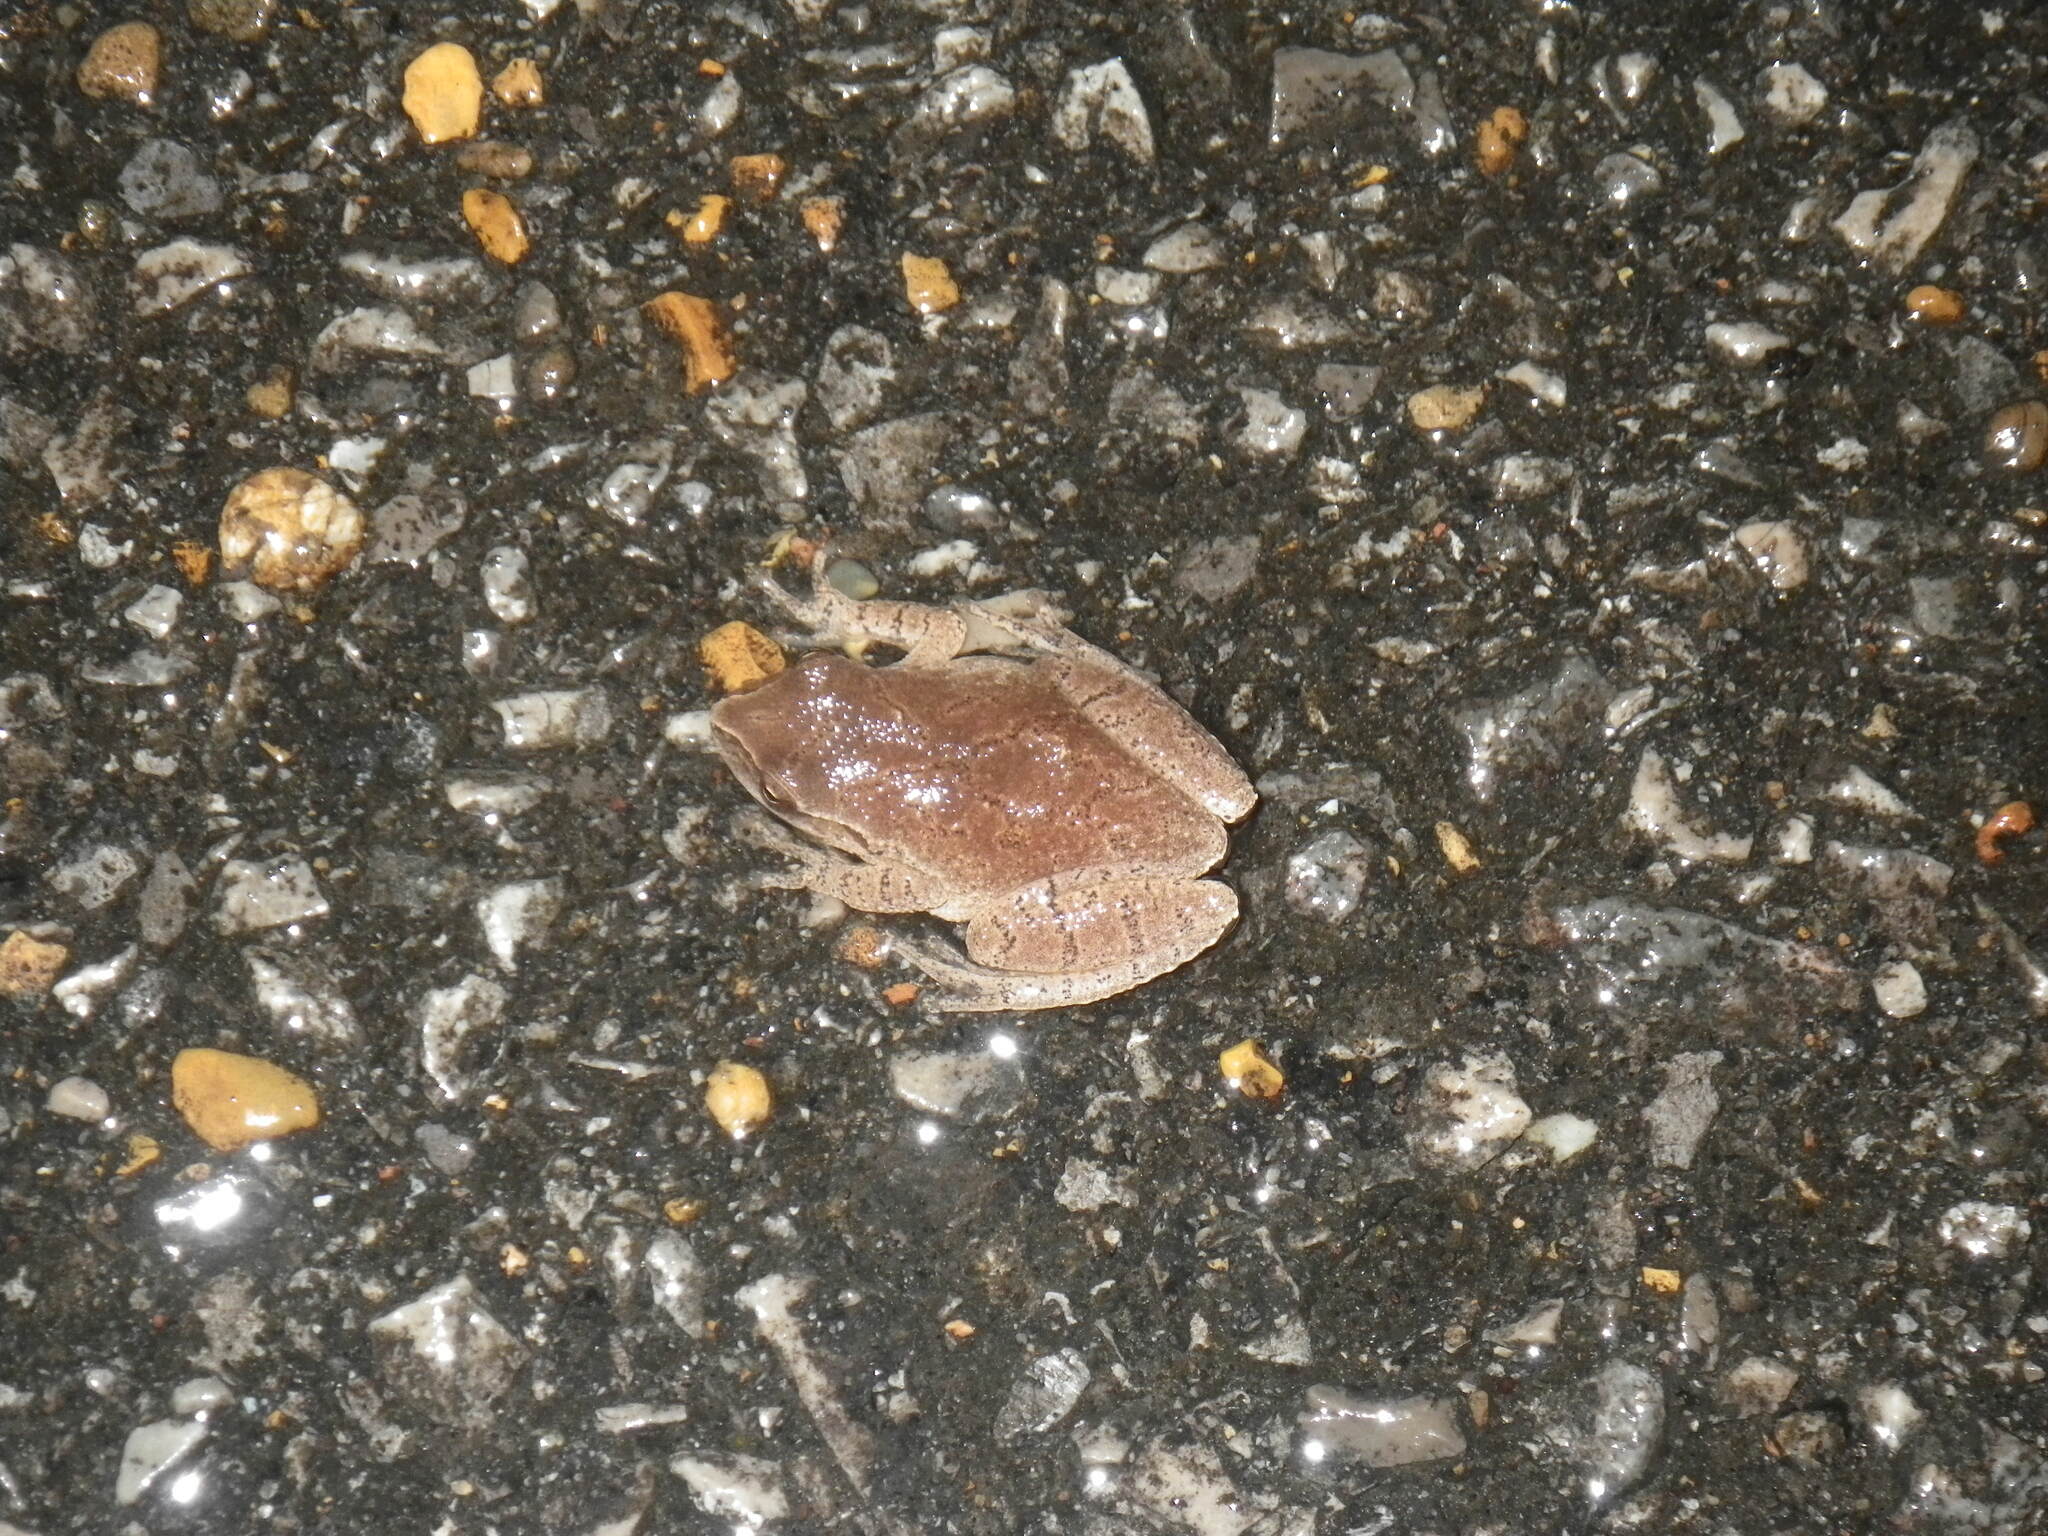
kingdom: Animalia
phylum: Chordata
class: Amphibia
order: Anura
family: Hylidae
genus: Pseudacris
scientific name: Pseudacris crucifer
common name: Spring peeper
